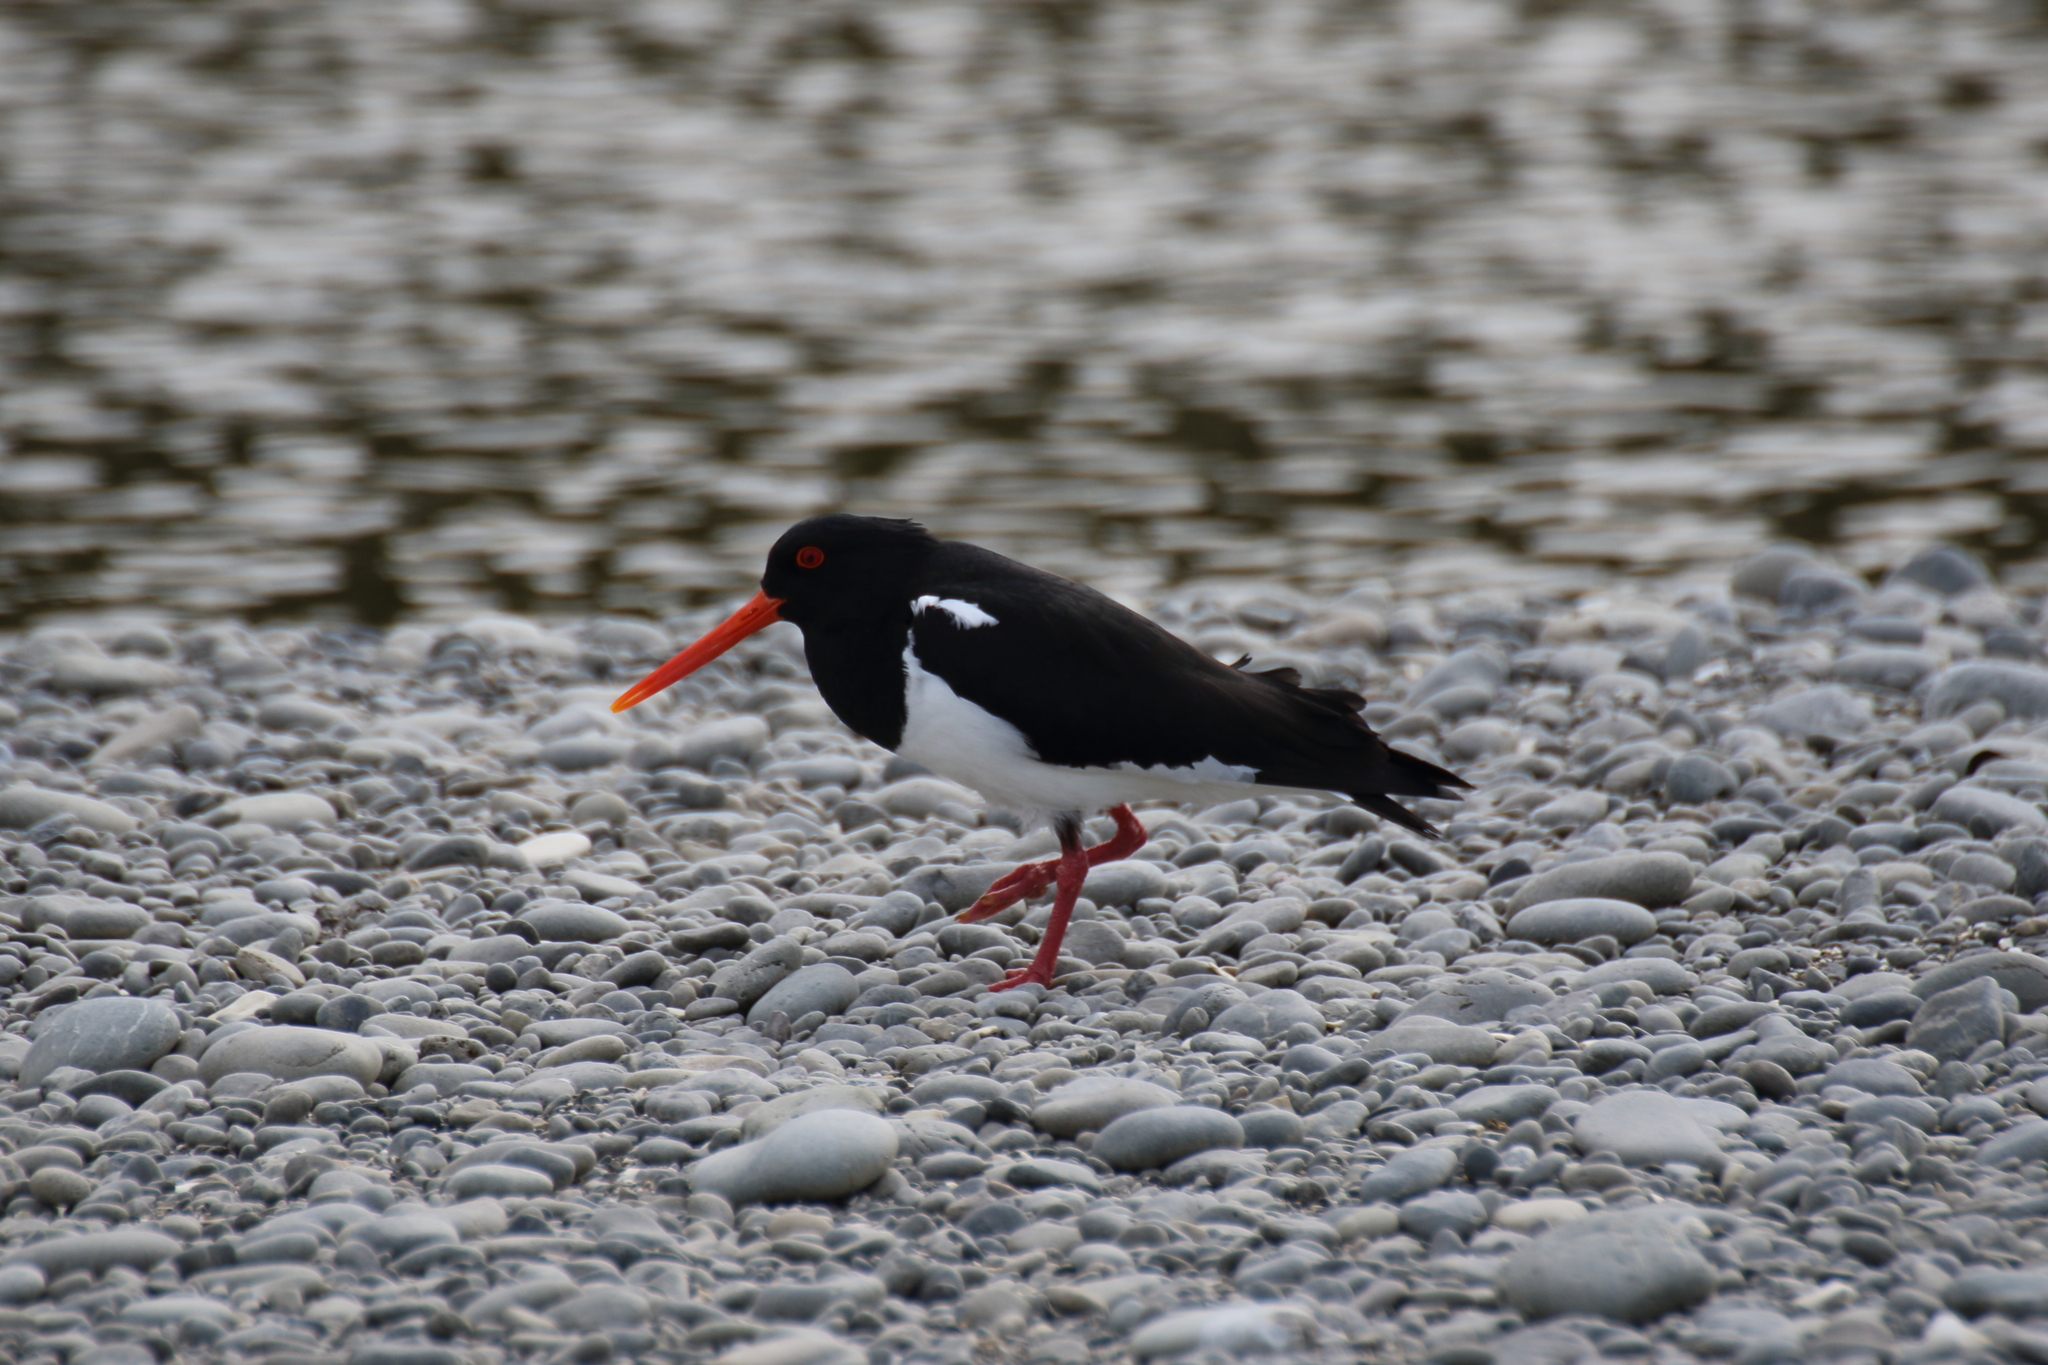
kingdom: Animalia
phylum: Chordata
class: Aves
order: Charadriiformes
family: Haematopodidae
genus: Haematopus
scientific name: Haematopus finschi
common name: South island oystercatcher
